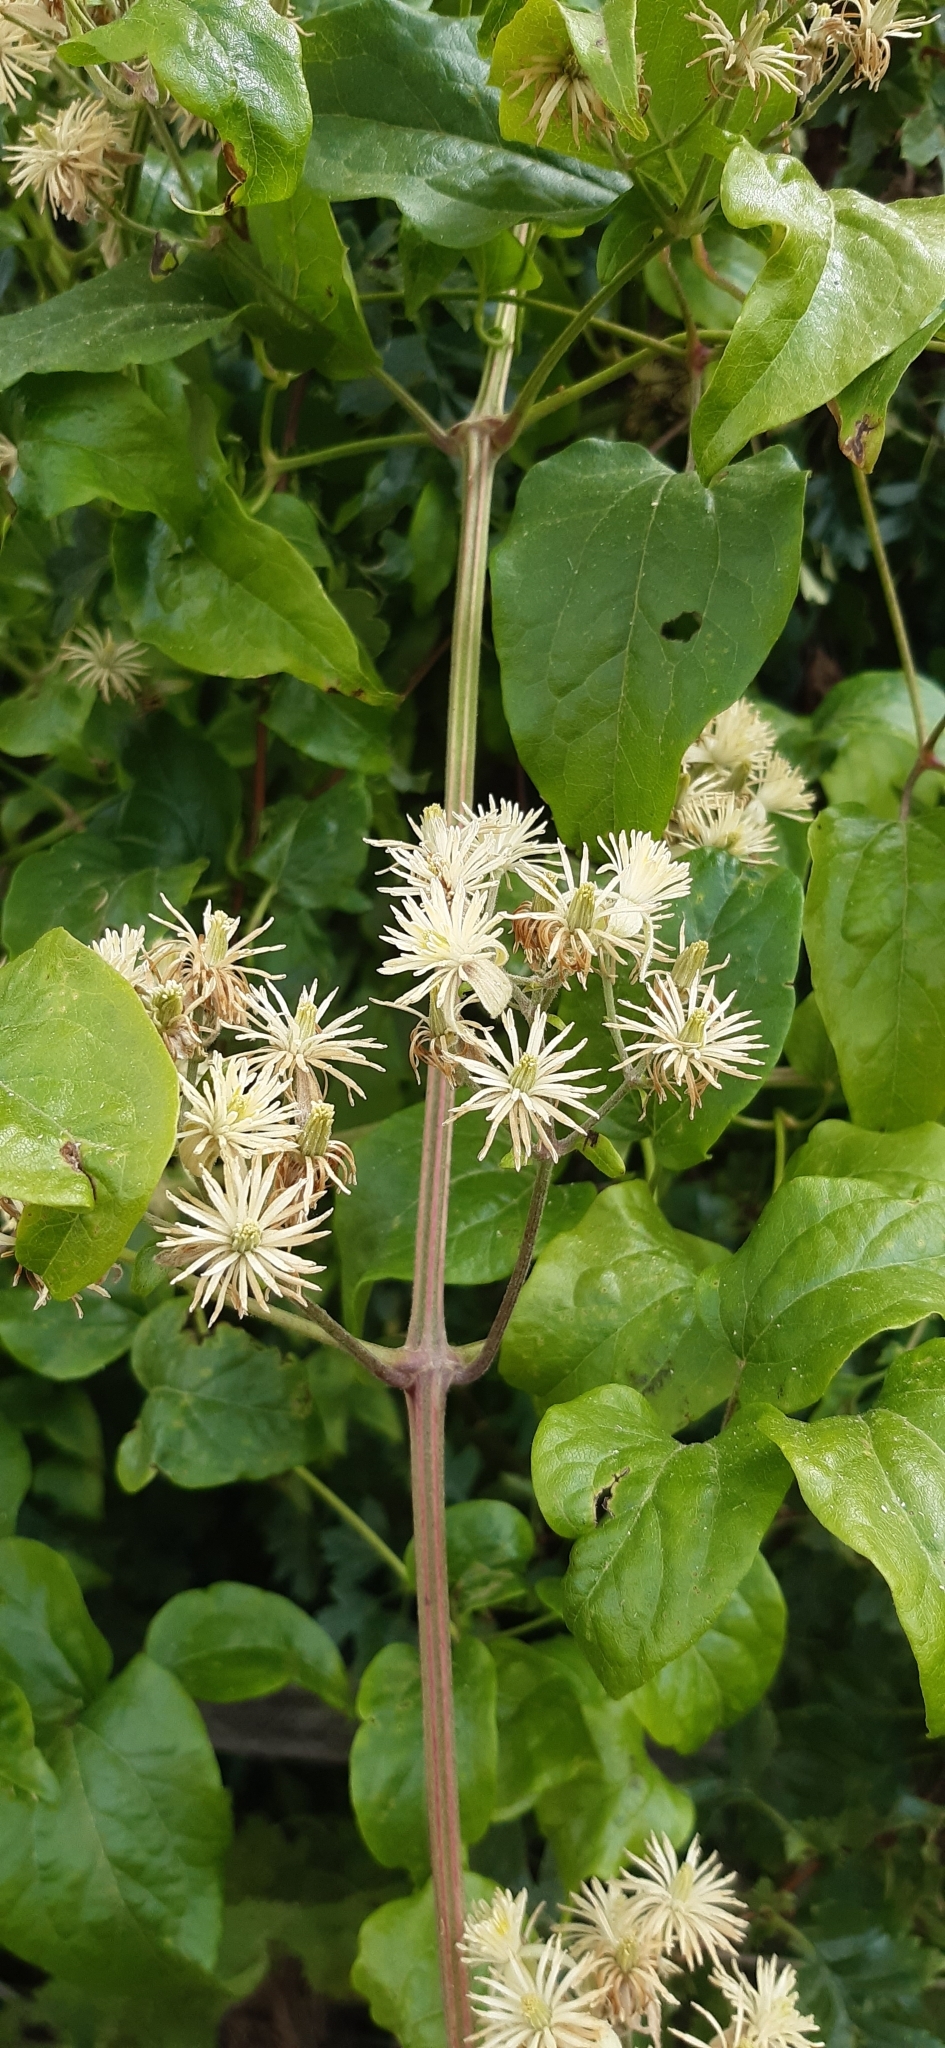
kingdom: Plantae
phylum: Tracheophyta
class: Magnoliopsida
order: Ranunculales
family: Ranunculaceae
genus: Clematis
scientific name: Clematis vitalba
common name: Evergreen clematis
